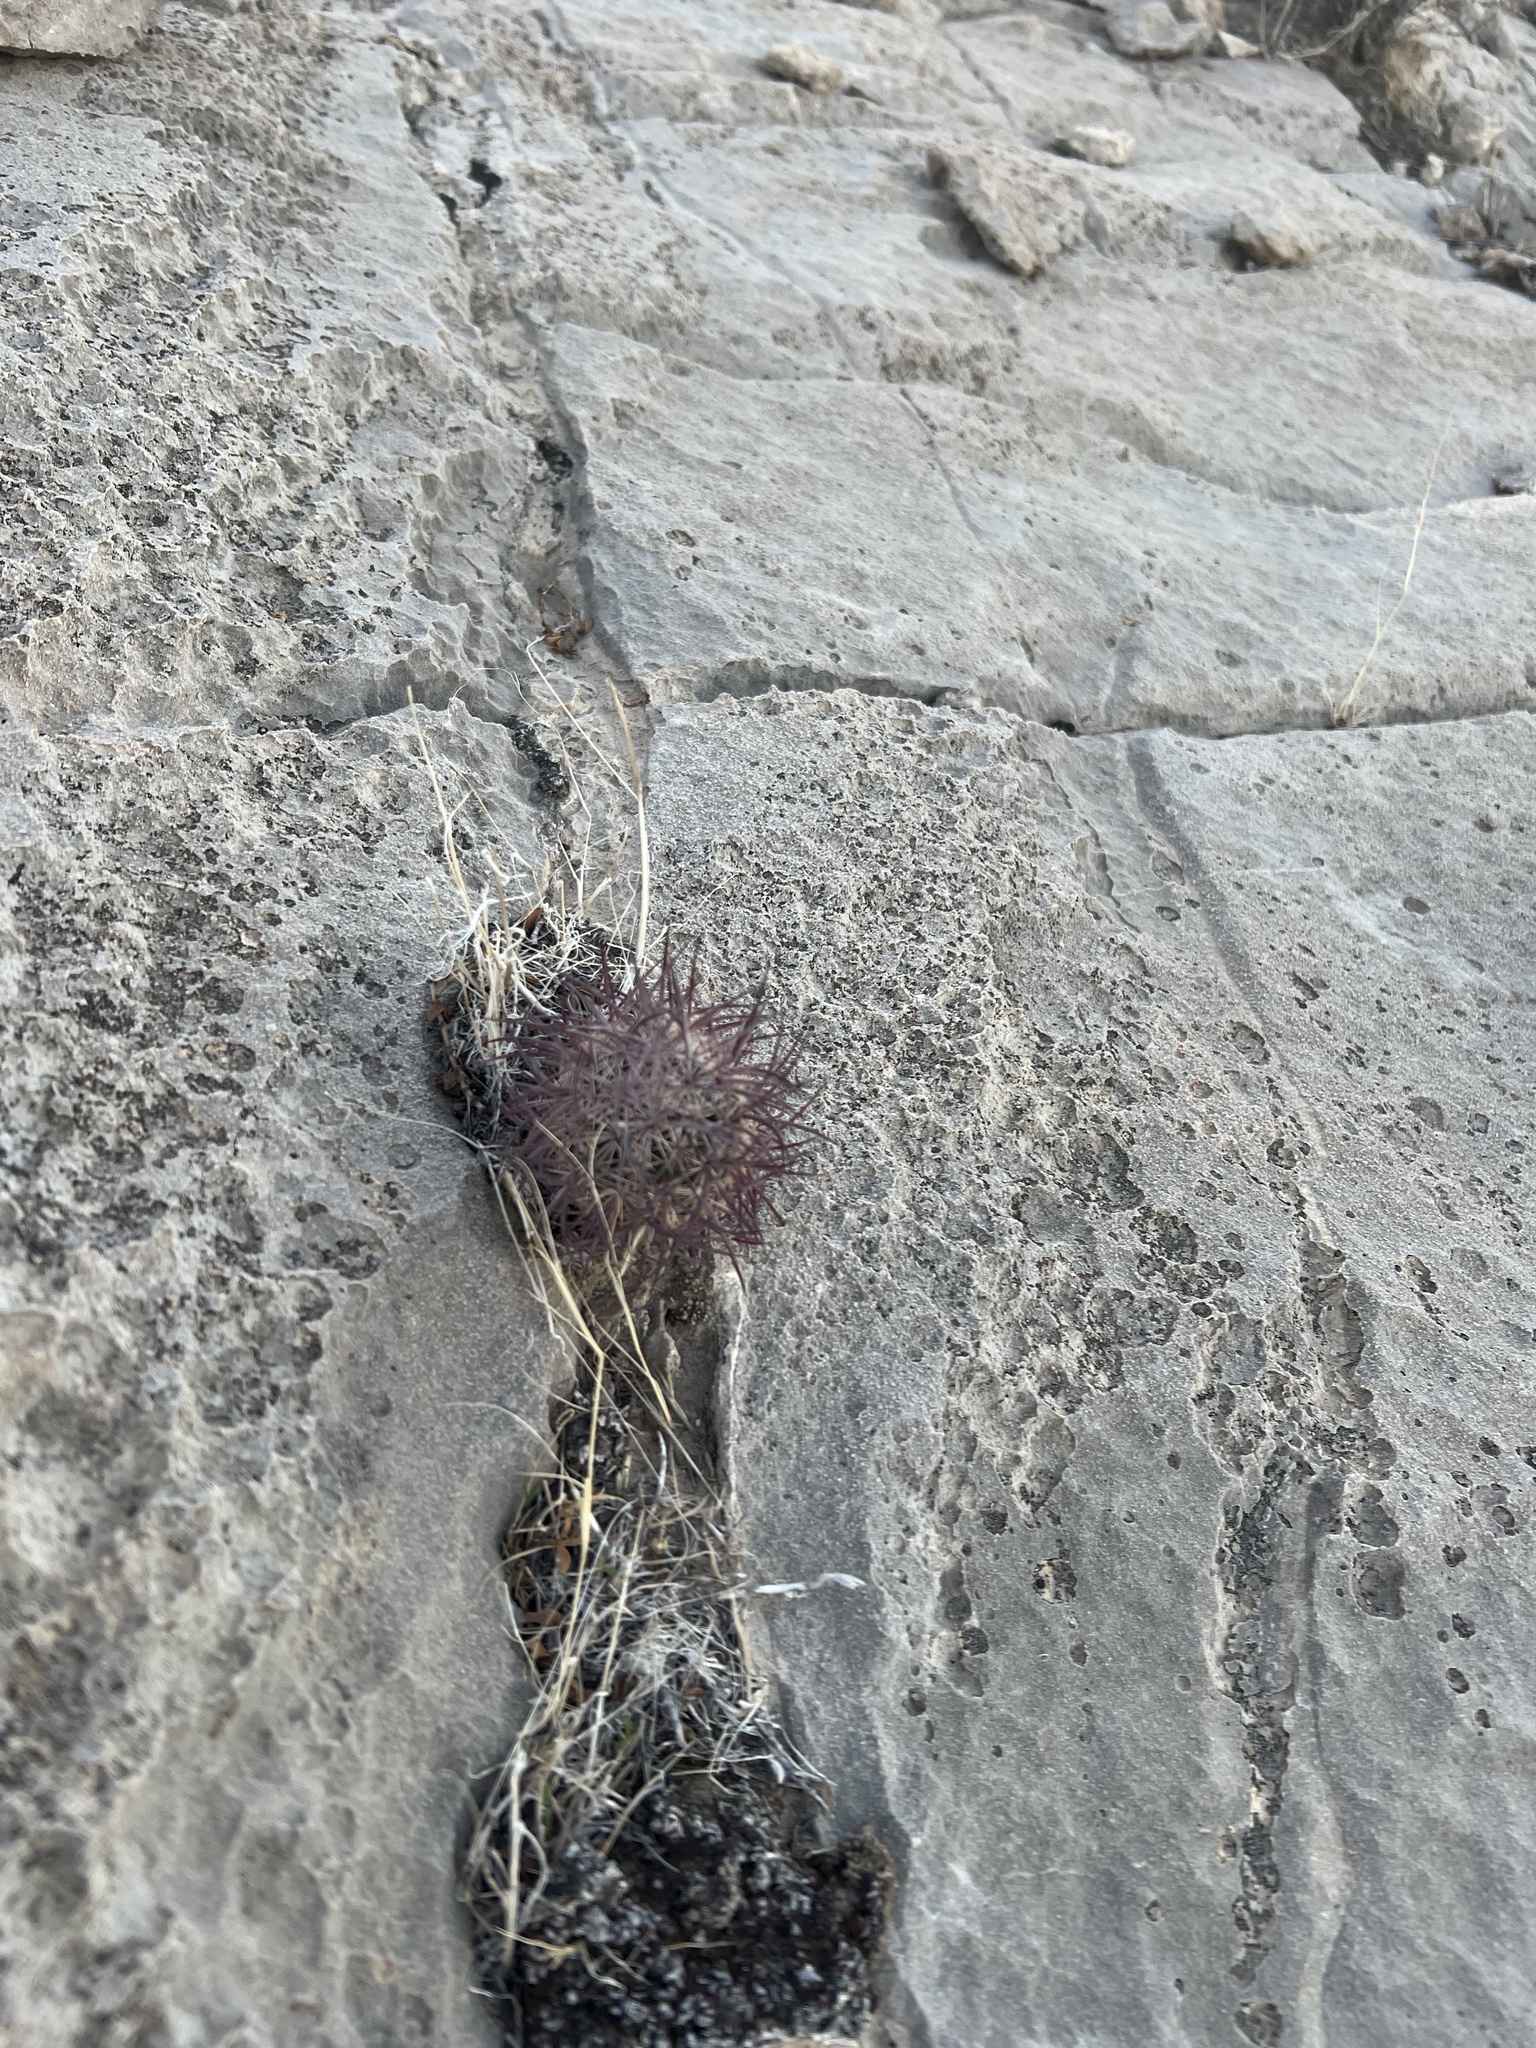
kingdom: Plantae
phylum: Tracheophyta
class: Magnoliopsida
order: Caryophyllales
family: Cactaceae
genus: Sclerocactus
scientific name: Sclerocactus johnsonii
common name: Eight-spine fishhook cactus
